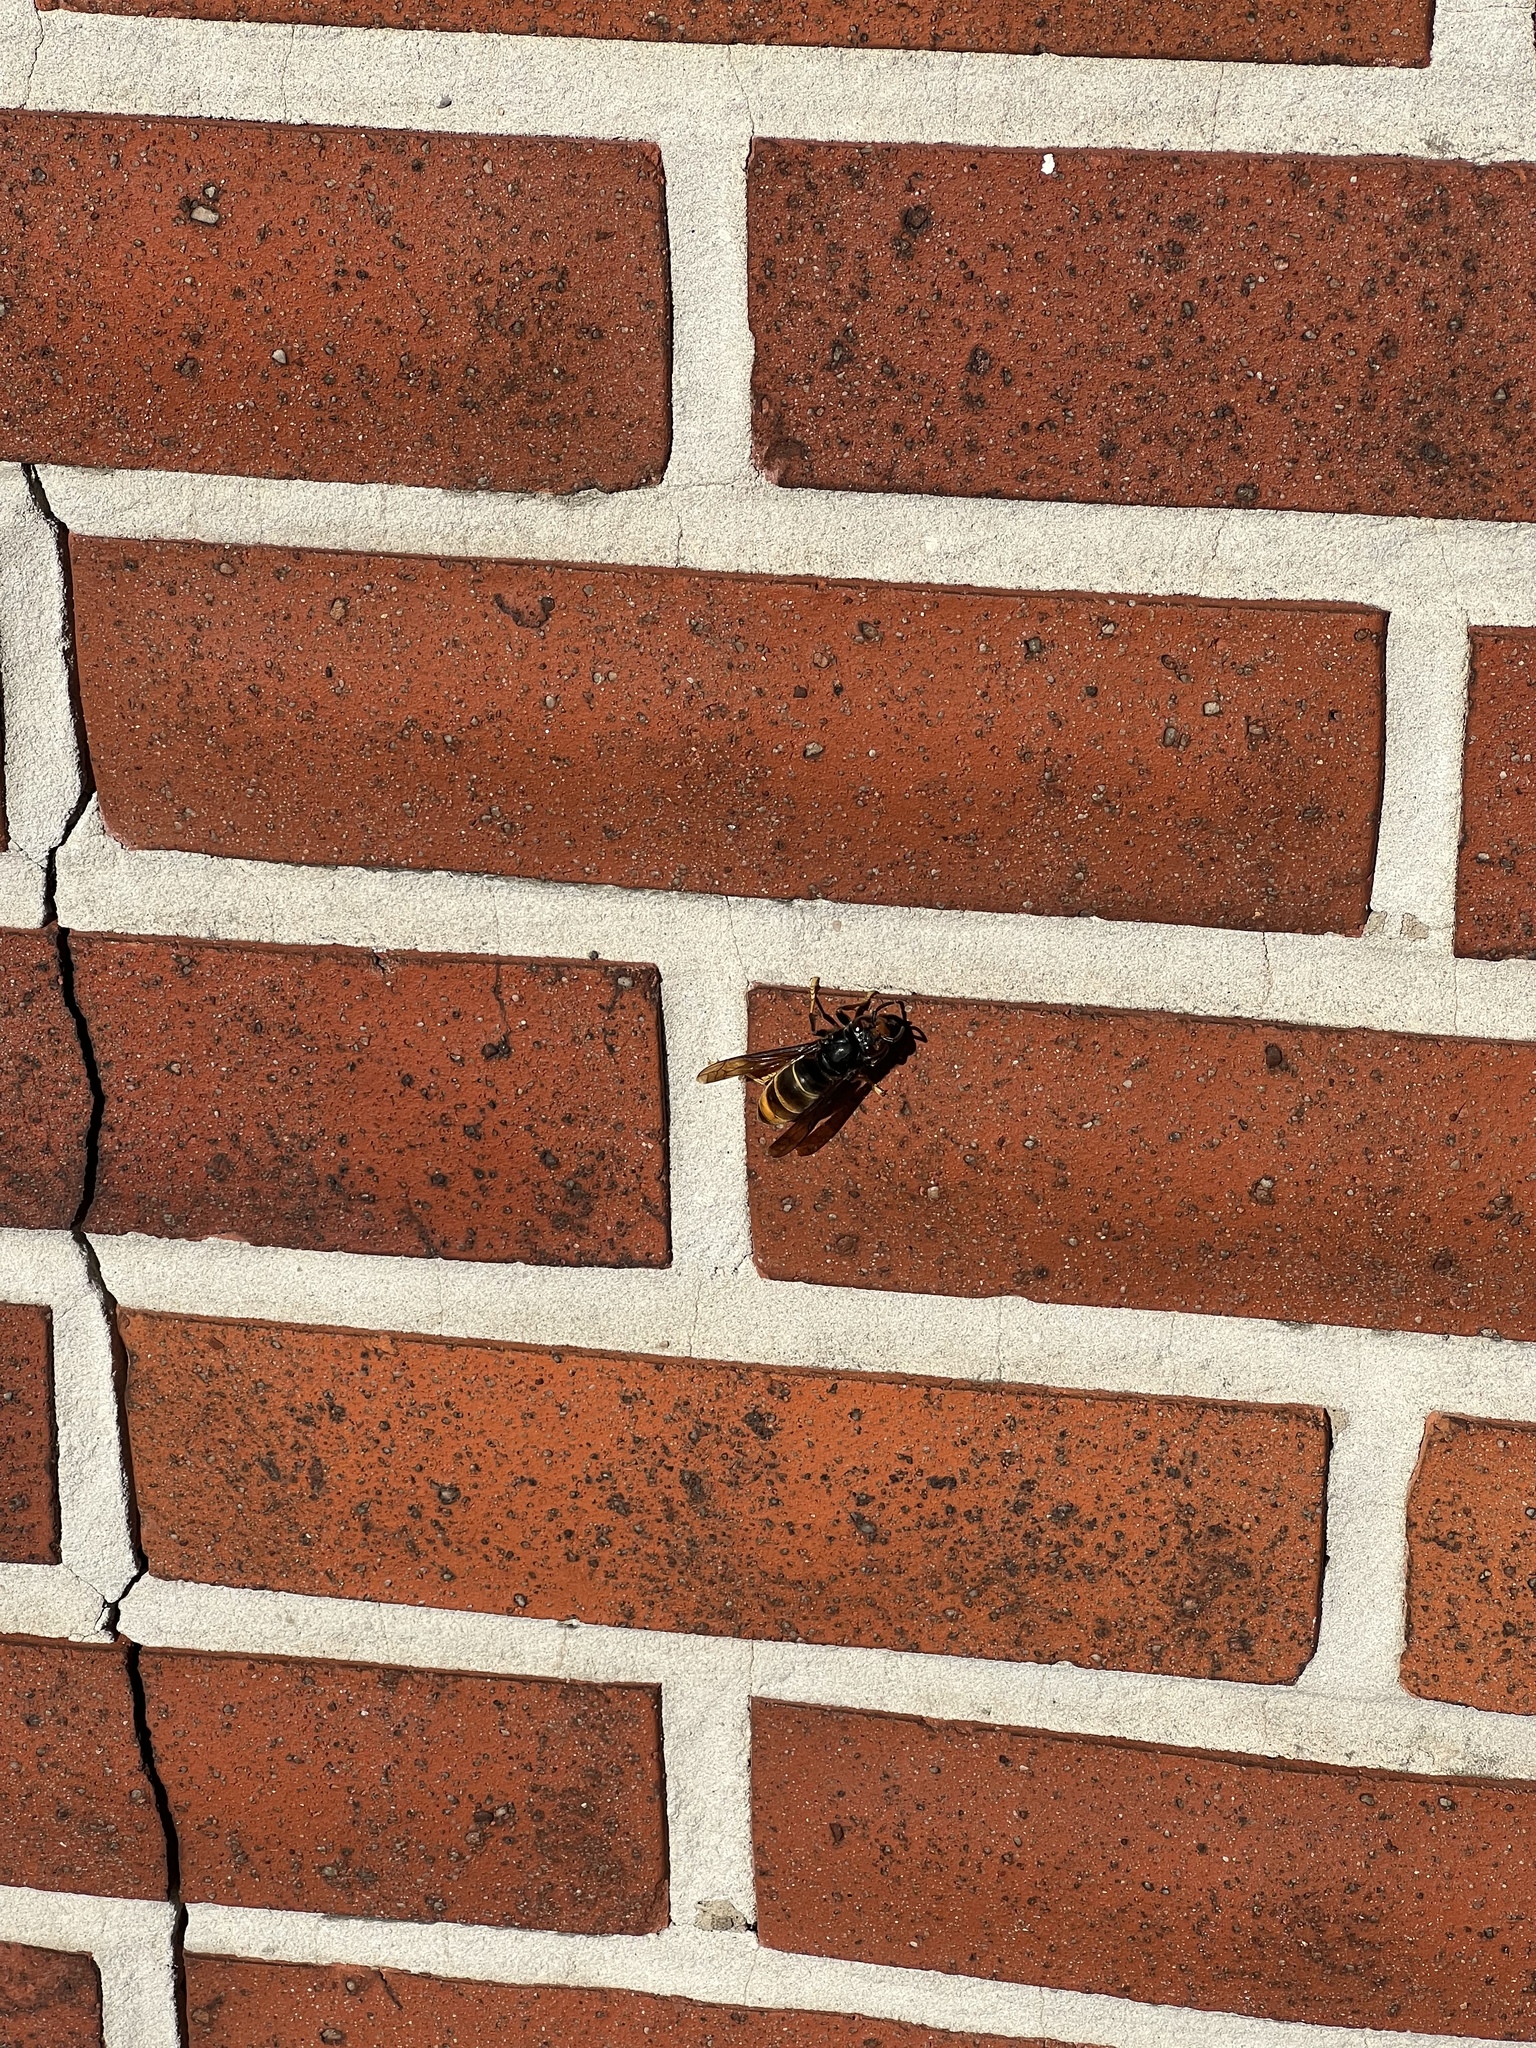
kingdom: Animalia
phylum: Arthropoda
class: Insecta
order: Hymenoptera
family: Vespidae
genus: Vespa
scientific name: Vespa velutina
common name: Asian hornet
